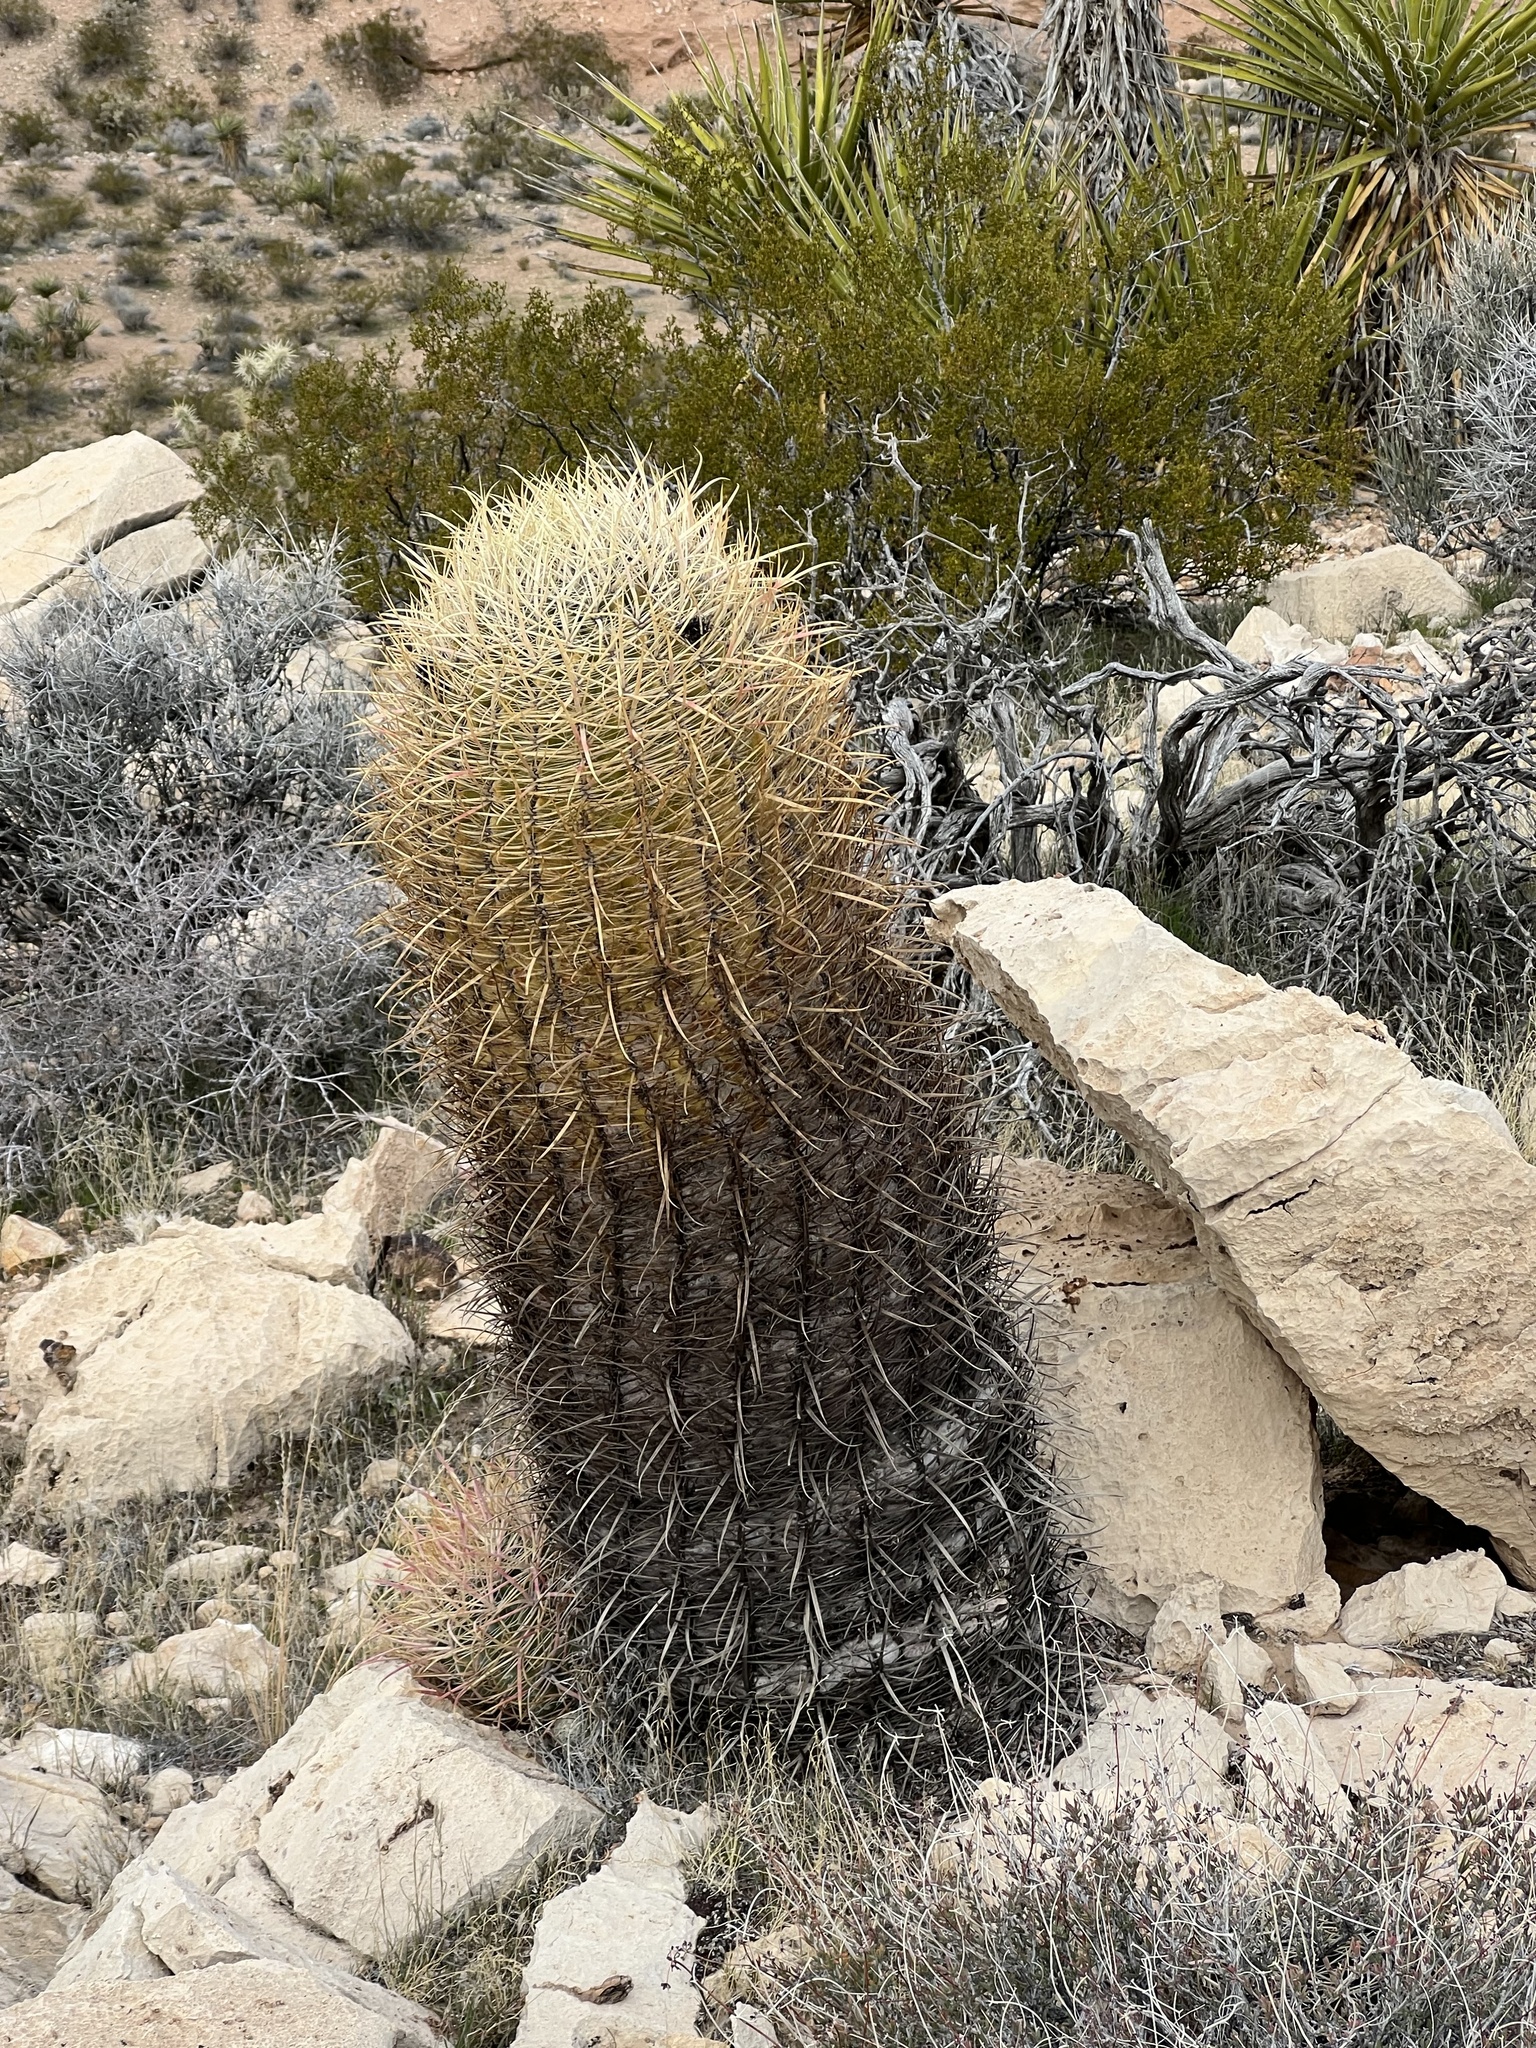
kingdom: Plantae
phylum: Tracheophyta
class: Magnoliopsida
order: Caryophyllales
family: Cactaceae
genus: Ferocactus
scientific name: Ferocactus cylindraceus
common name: California barrel cactus
